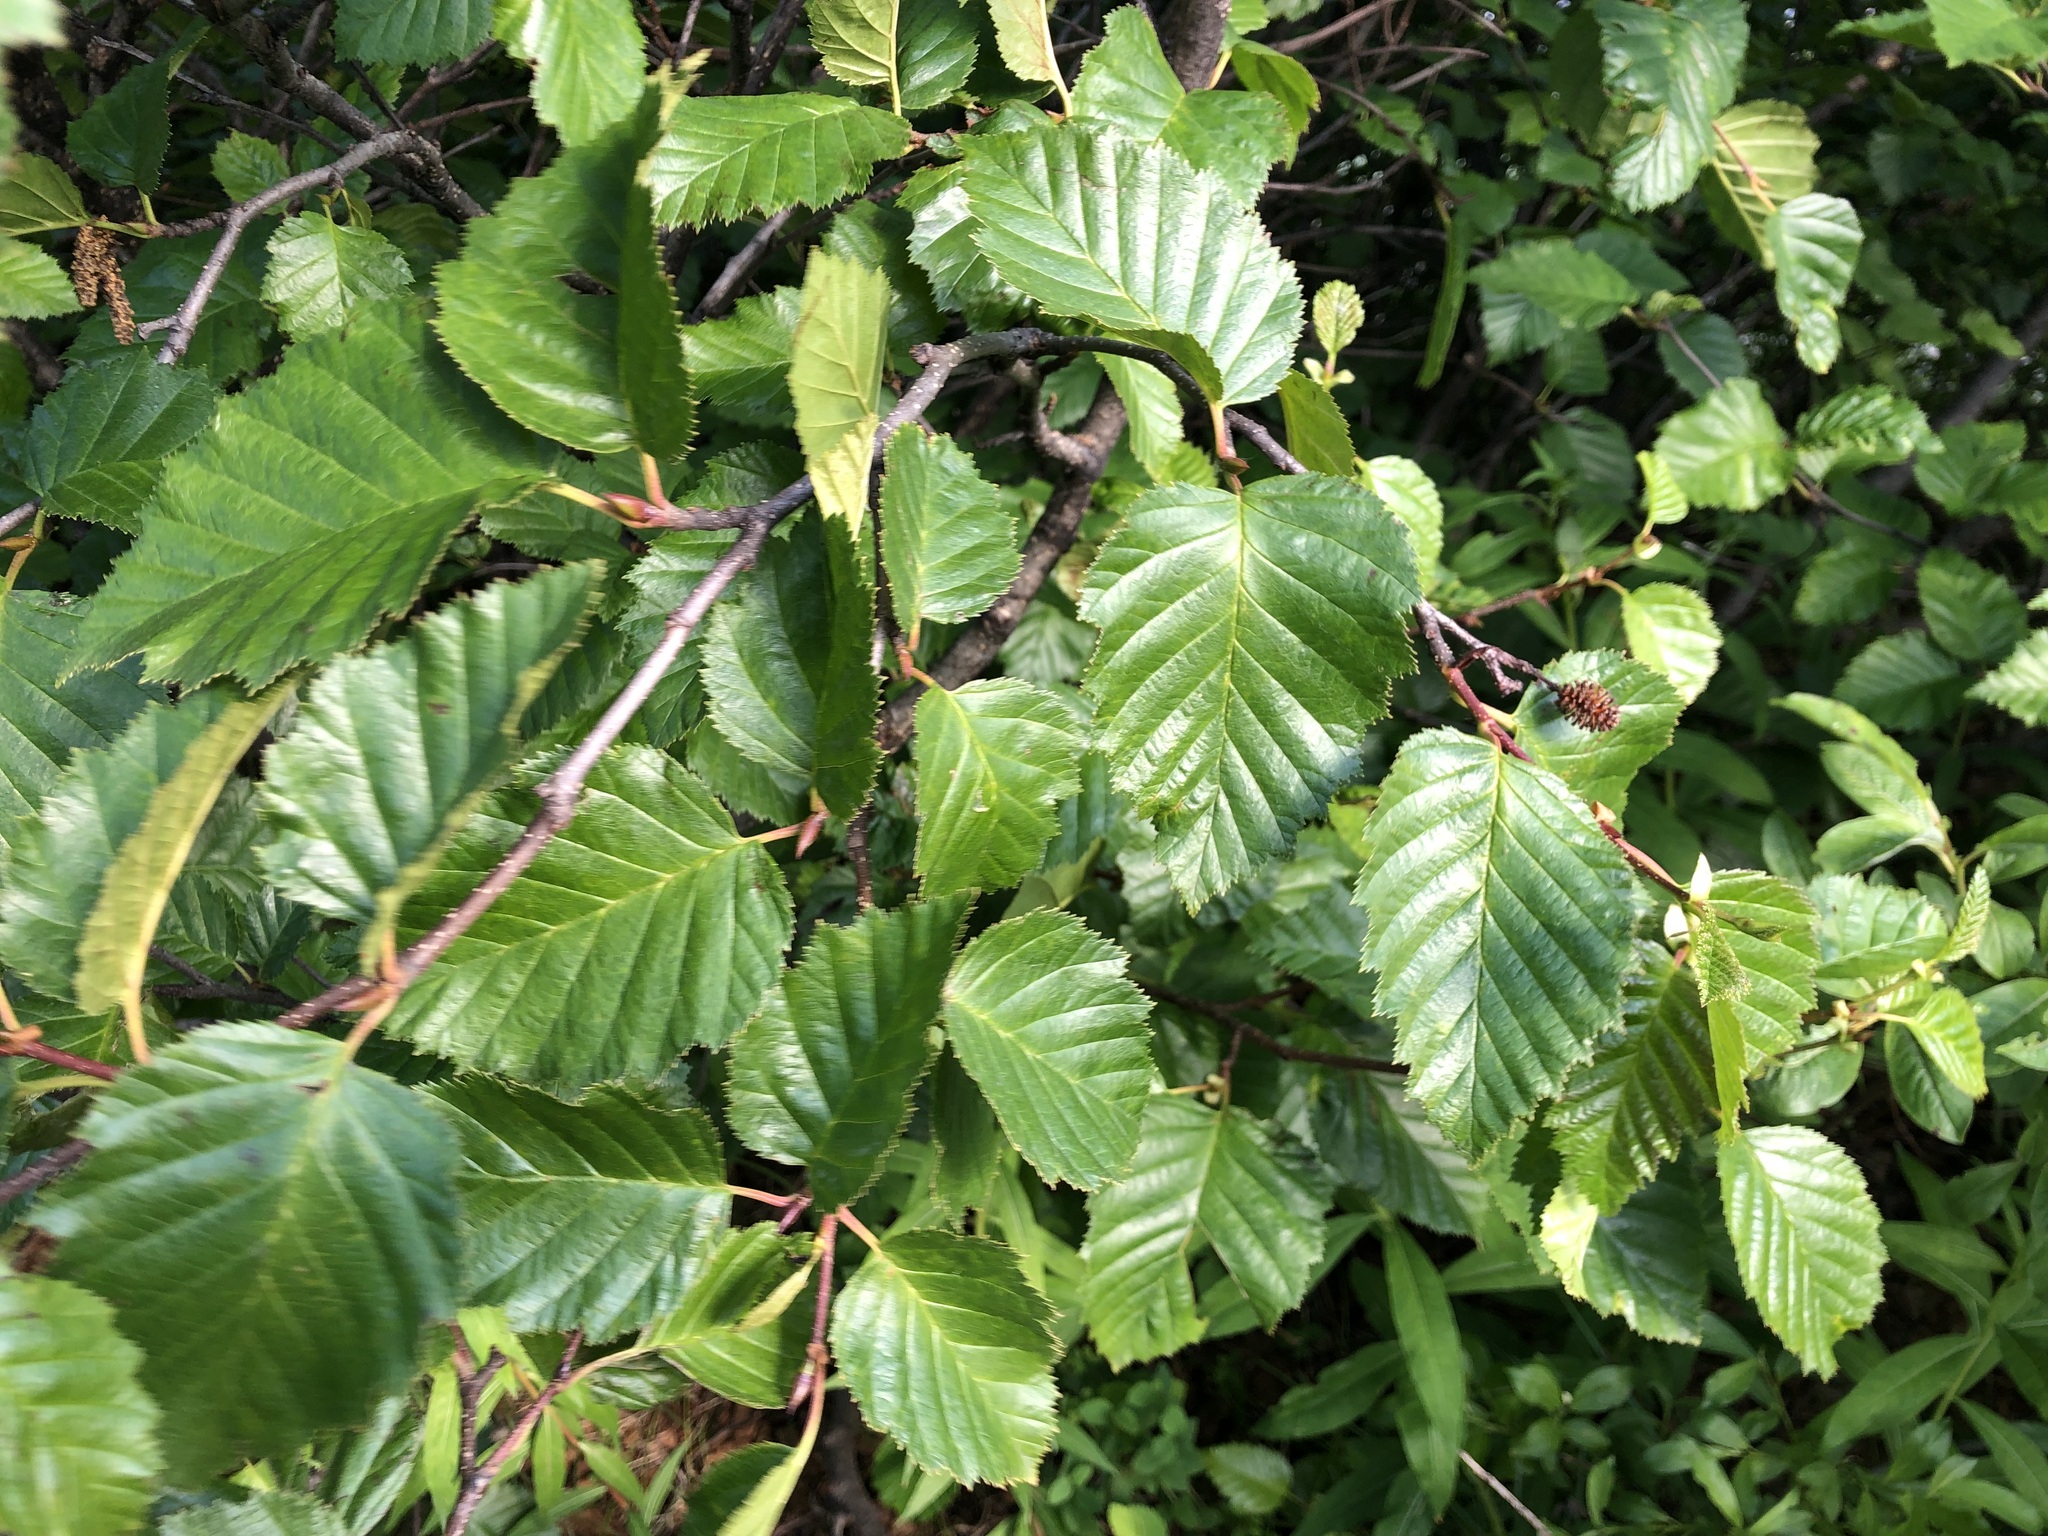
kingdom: Plantae
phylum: Tracheophyta
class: Magnoliopsida
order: Fagales
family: Betulaceae
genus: Alnus
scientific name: Alnus alnobetula
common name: Green alder
